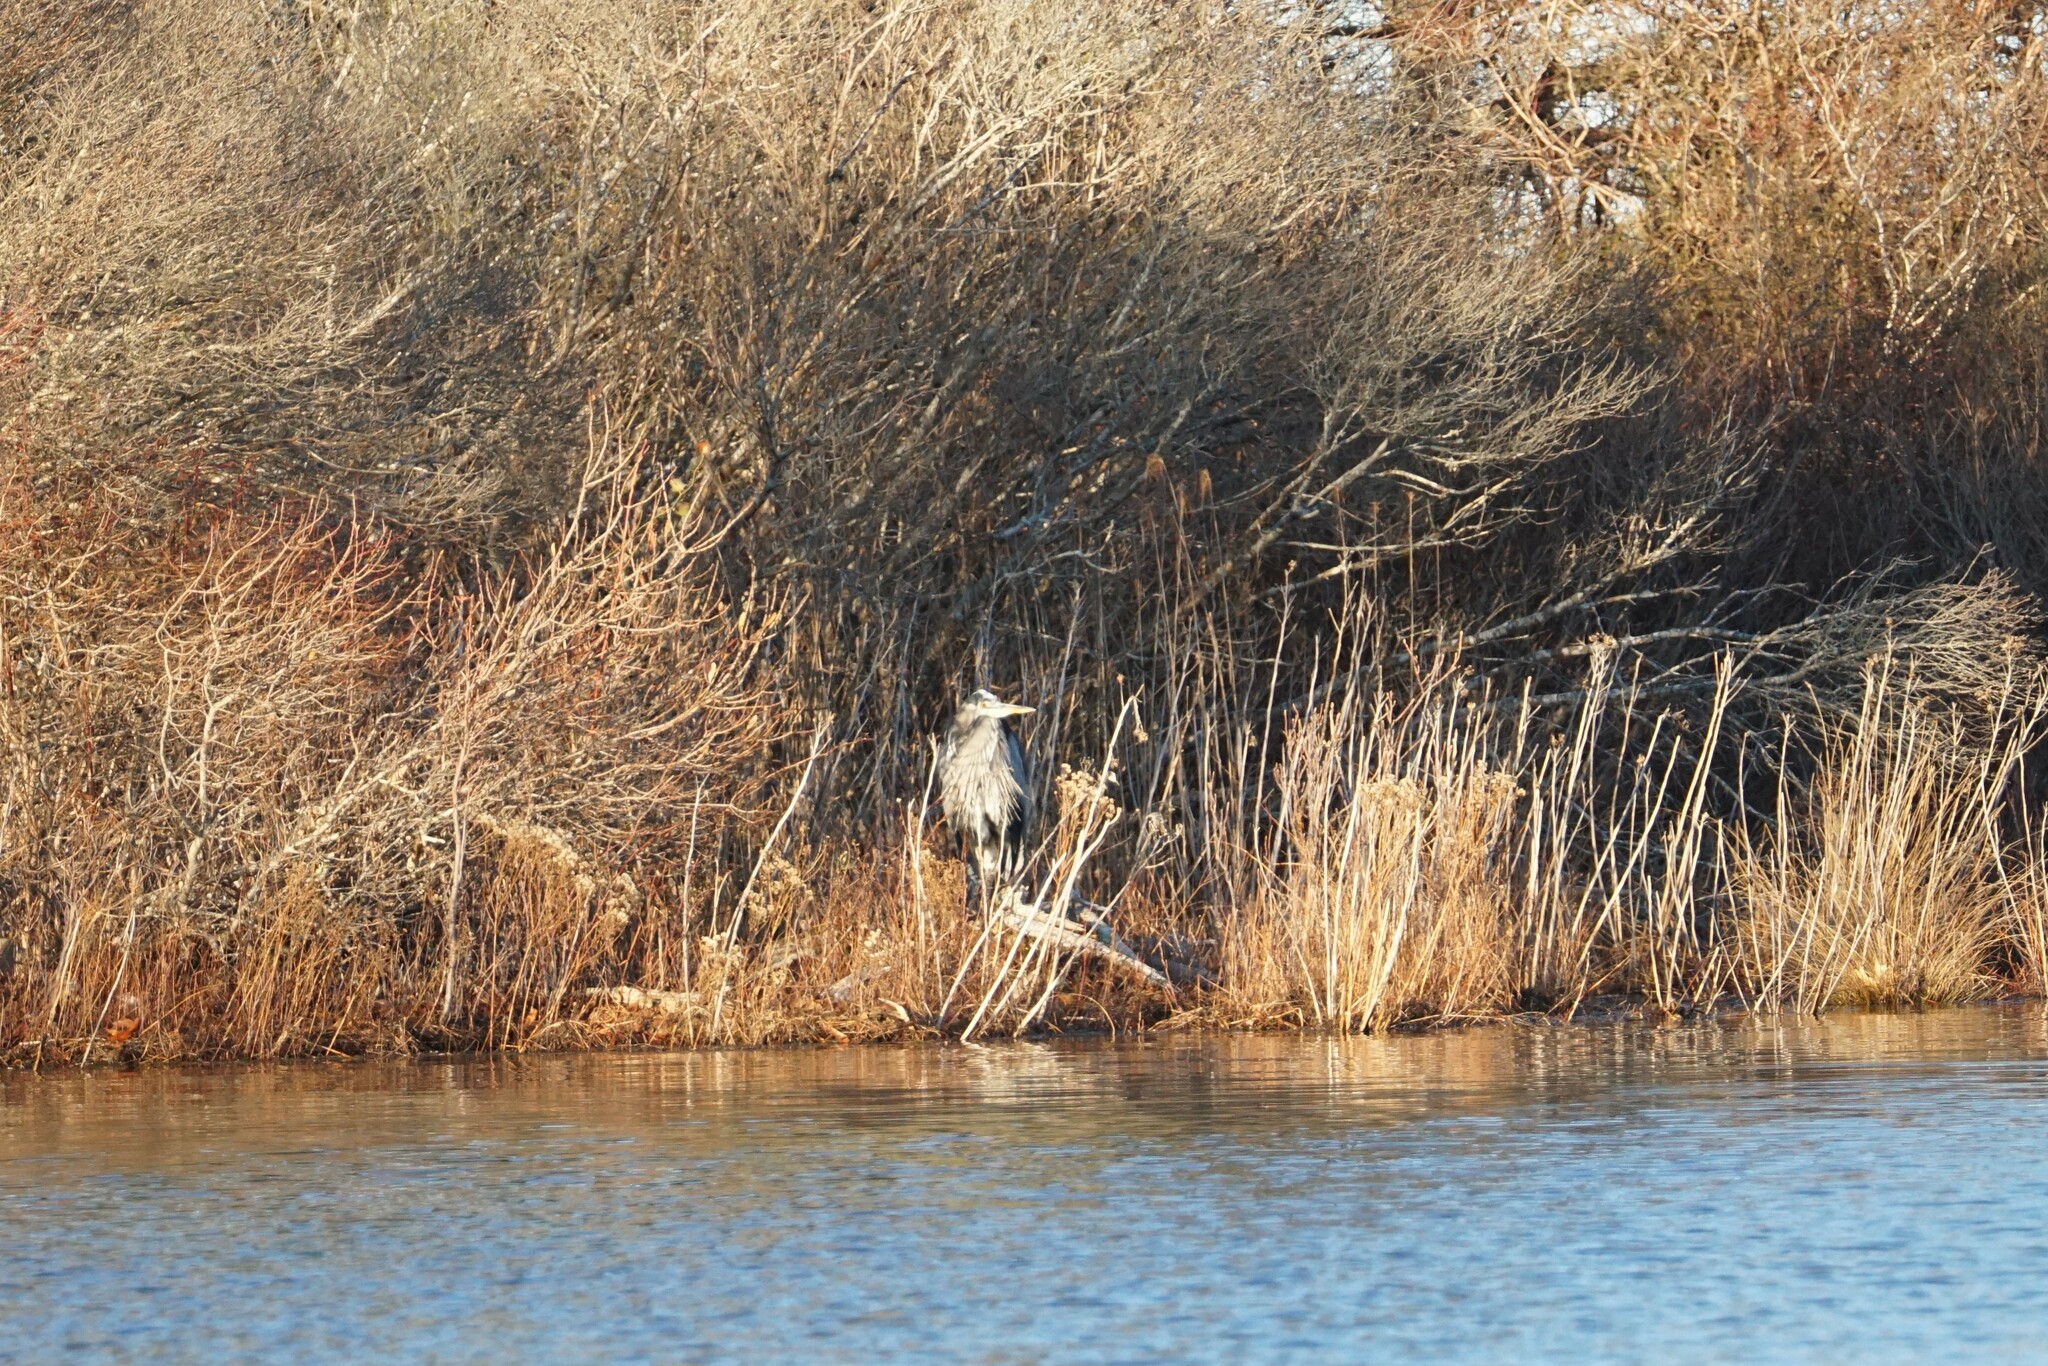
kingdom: Animalia
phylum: Chordata
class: Aves
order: Pelecaniformes
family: Ardeidae
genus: Ardea
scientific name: Ardea herodias
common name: Great blue heron
